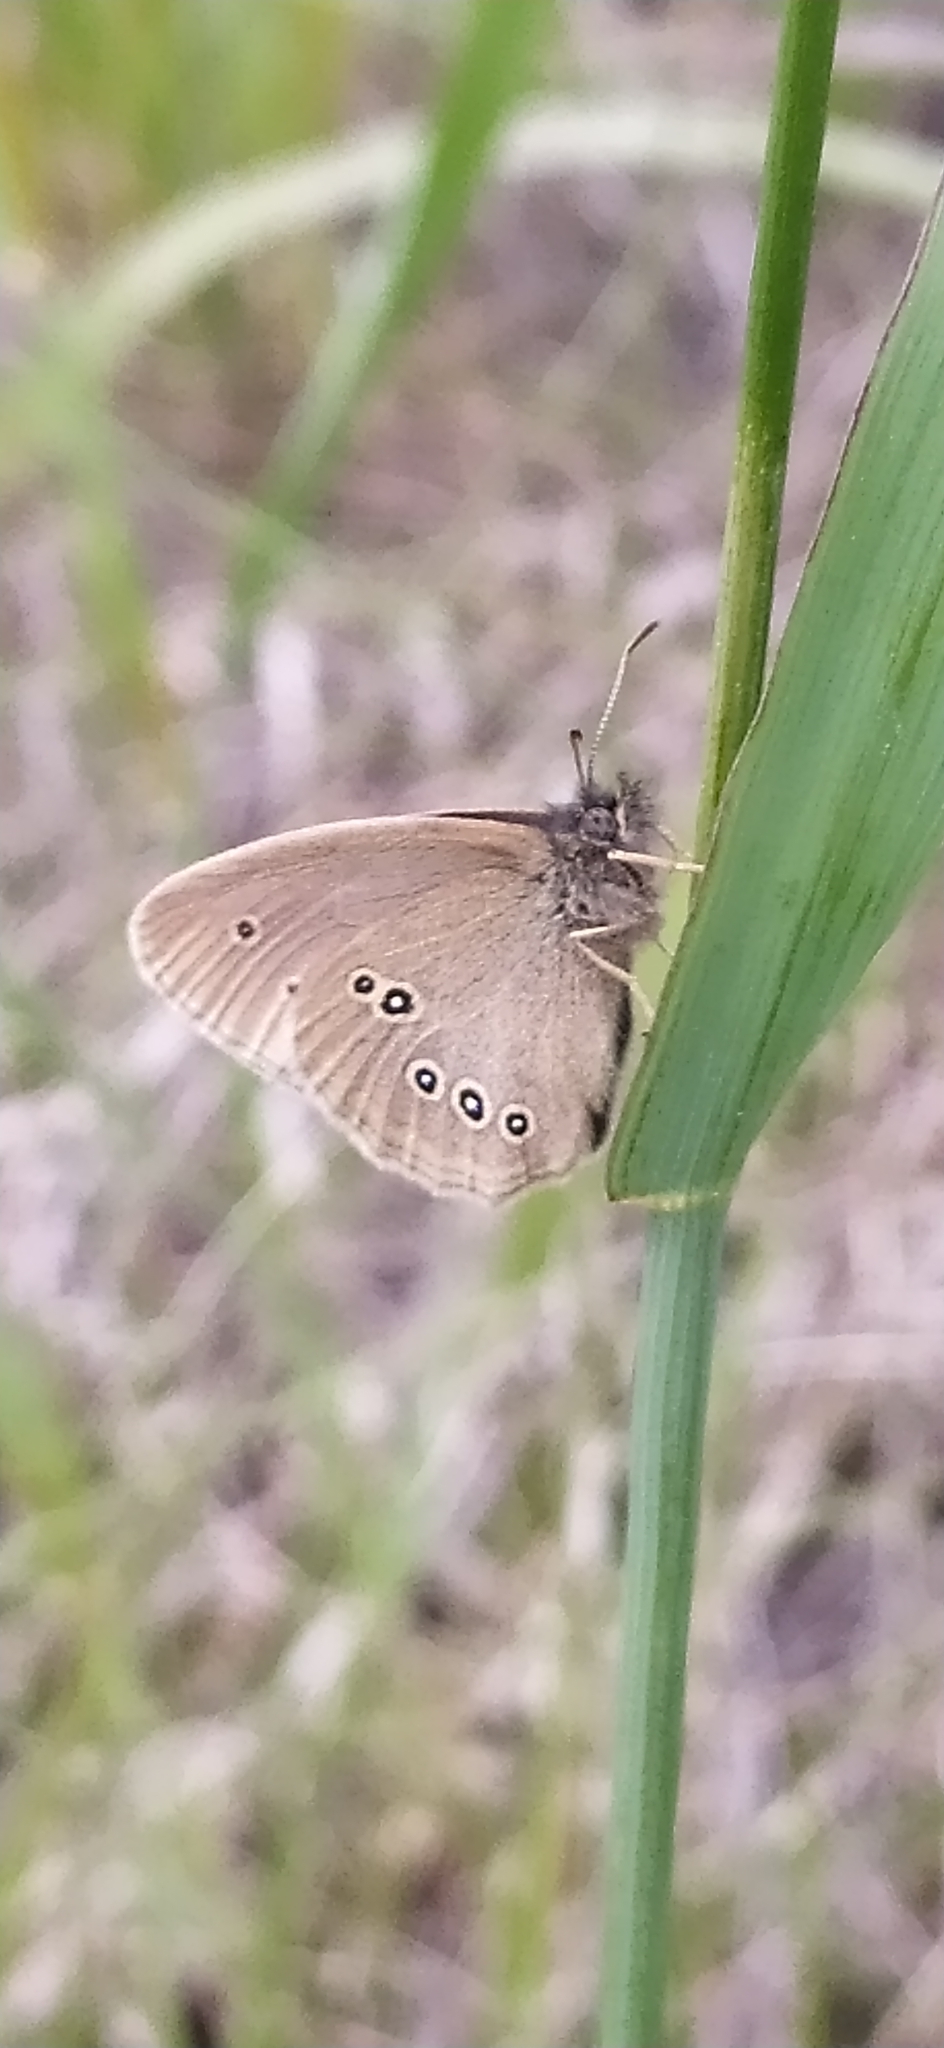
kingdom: Animalia
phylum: Arthropoda
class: Insecta
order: Lepidoptera
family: Nymphalidae
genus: Aphantopus
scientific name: Aphantopus hyperantus
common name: Ringlet
